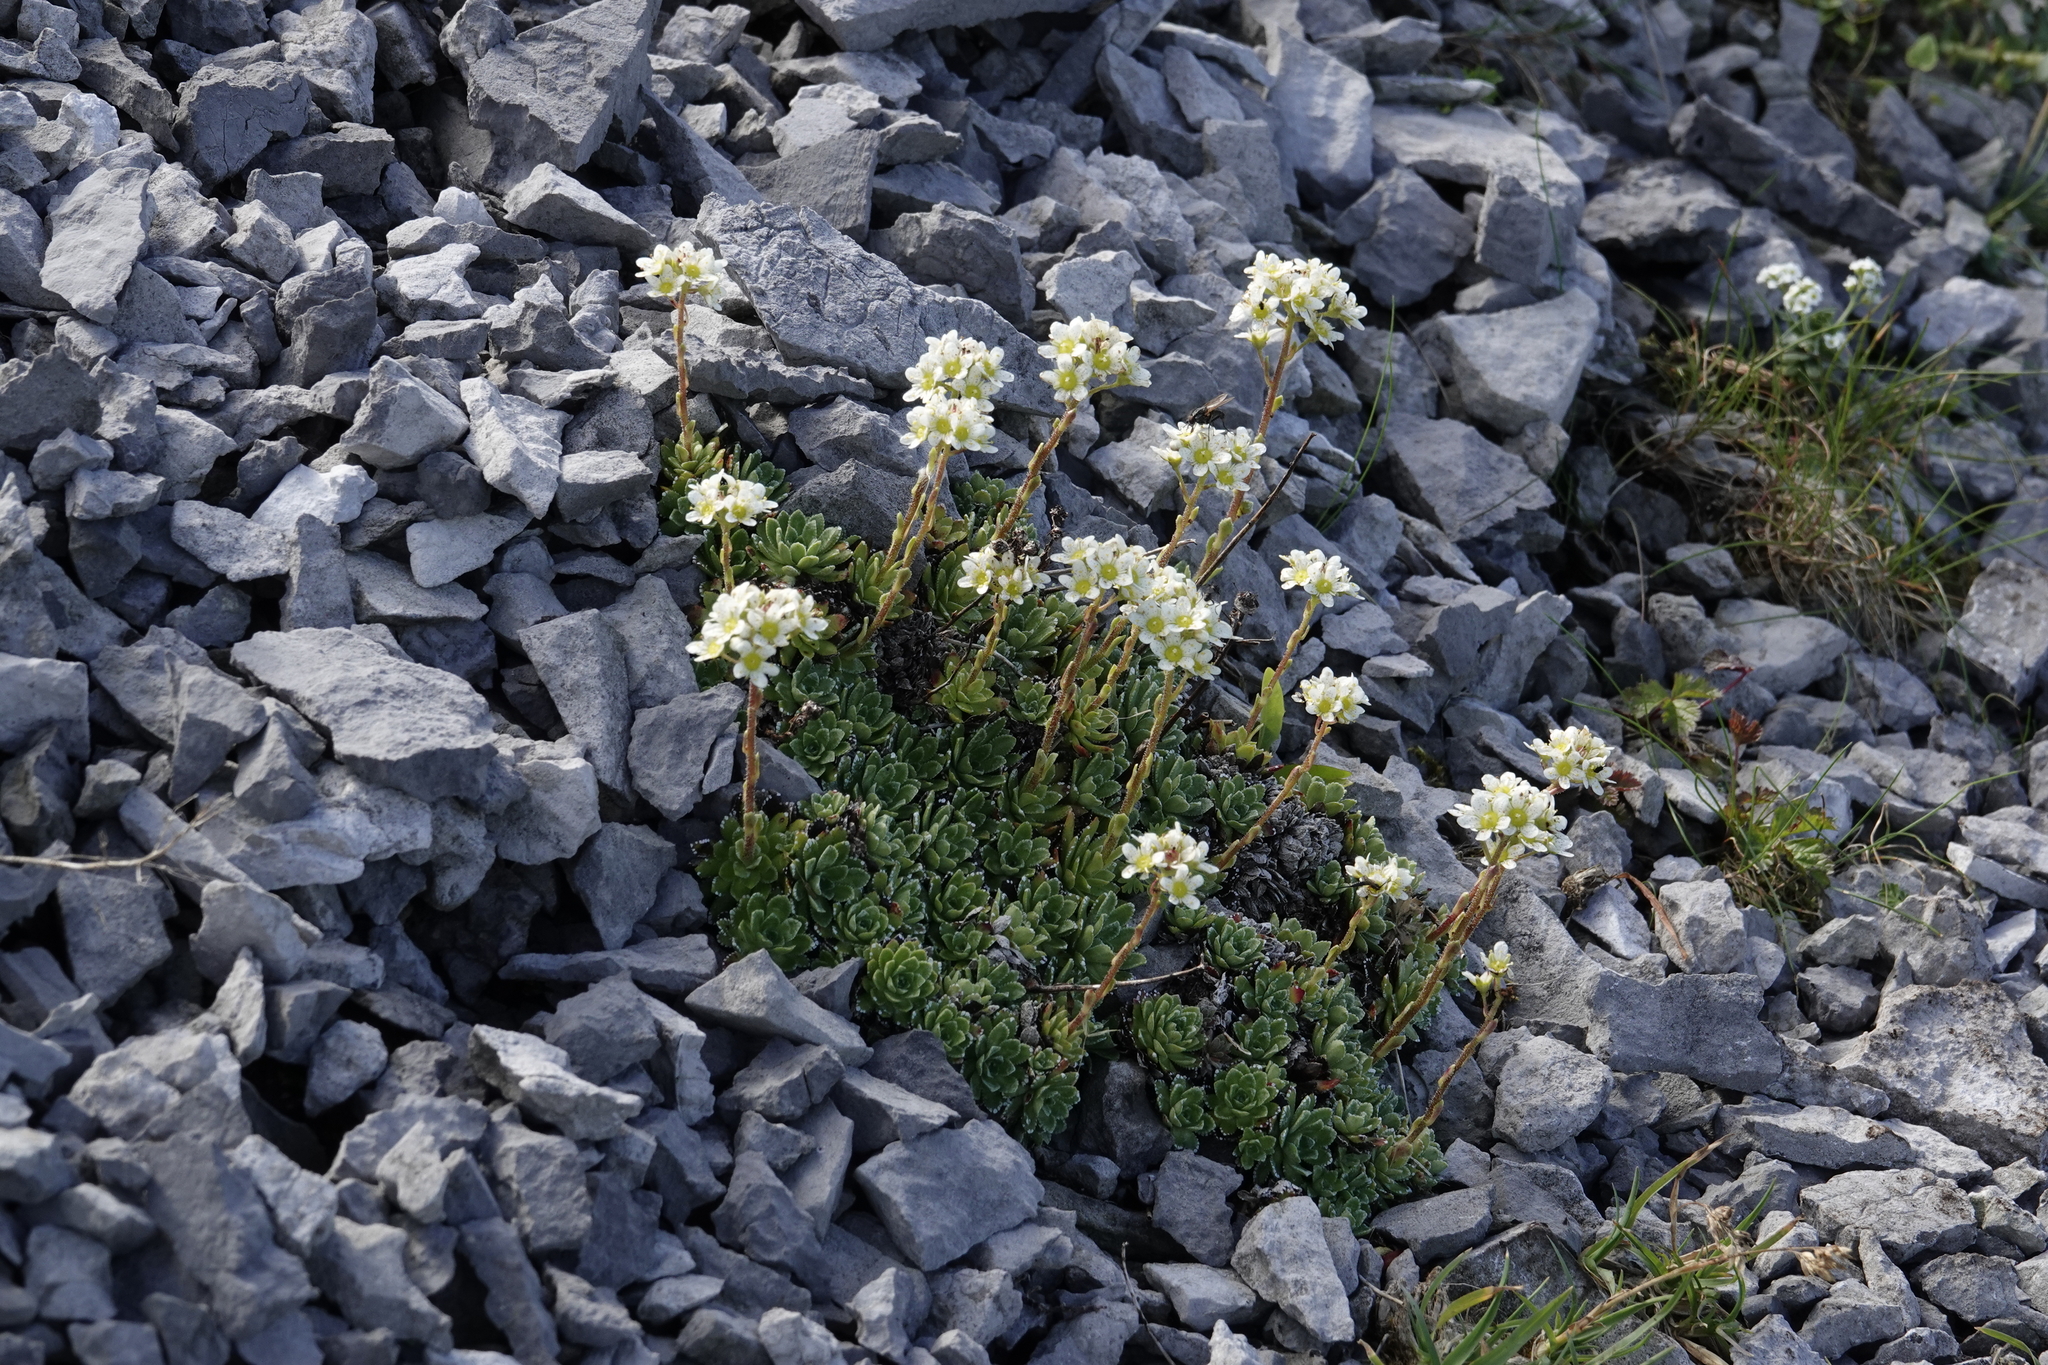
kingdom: Plantae
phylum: Tracheophyta
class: Magnoliopsida
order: Saxifragales
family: Saxifragaceae
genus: Saxifraga
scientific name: Saxifraga paniculata
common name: Livelong saxifrage
